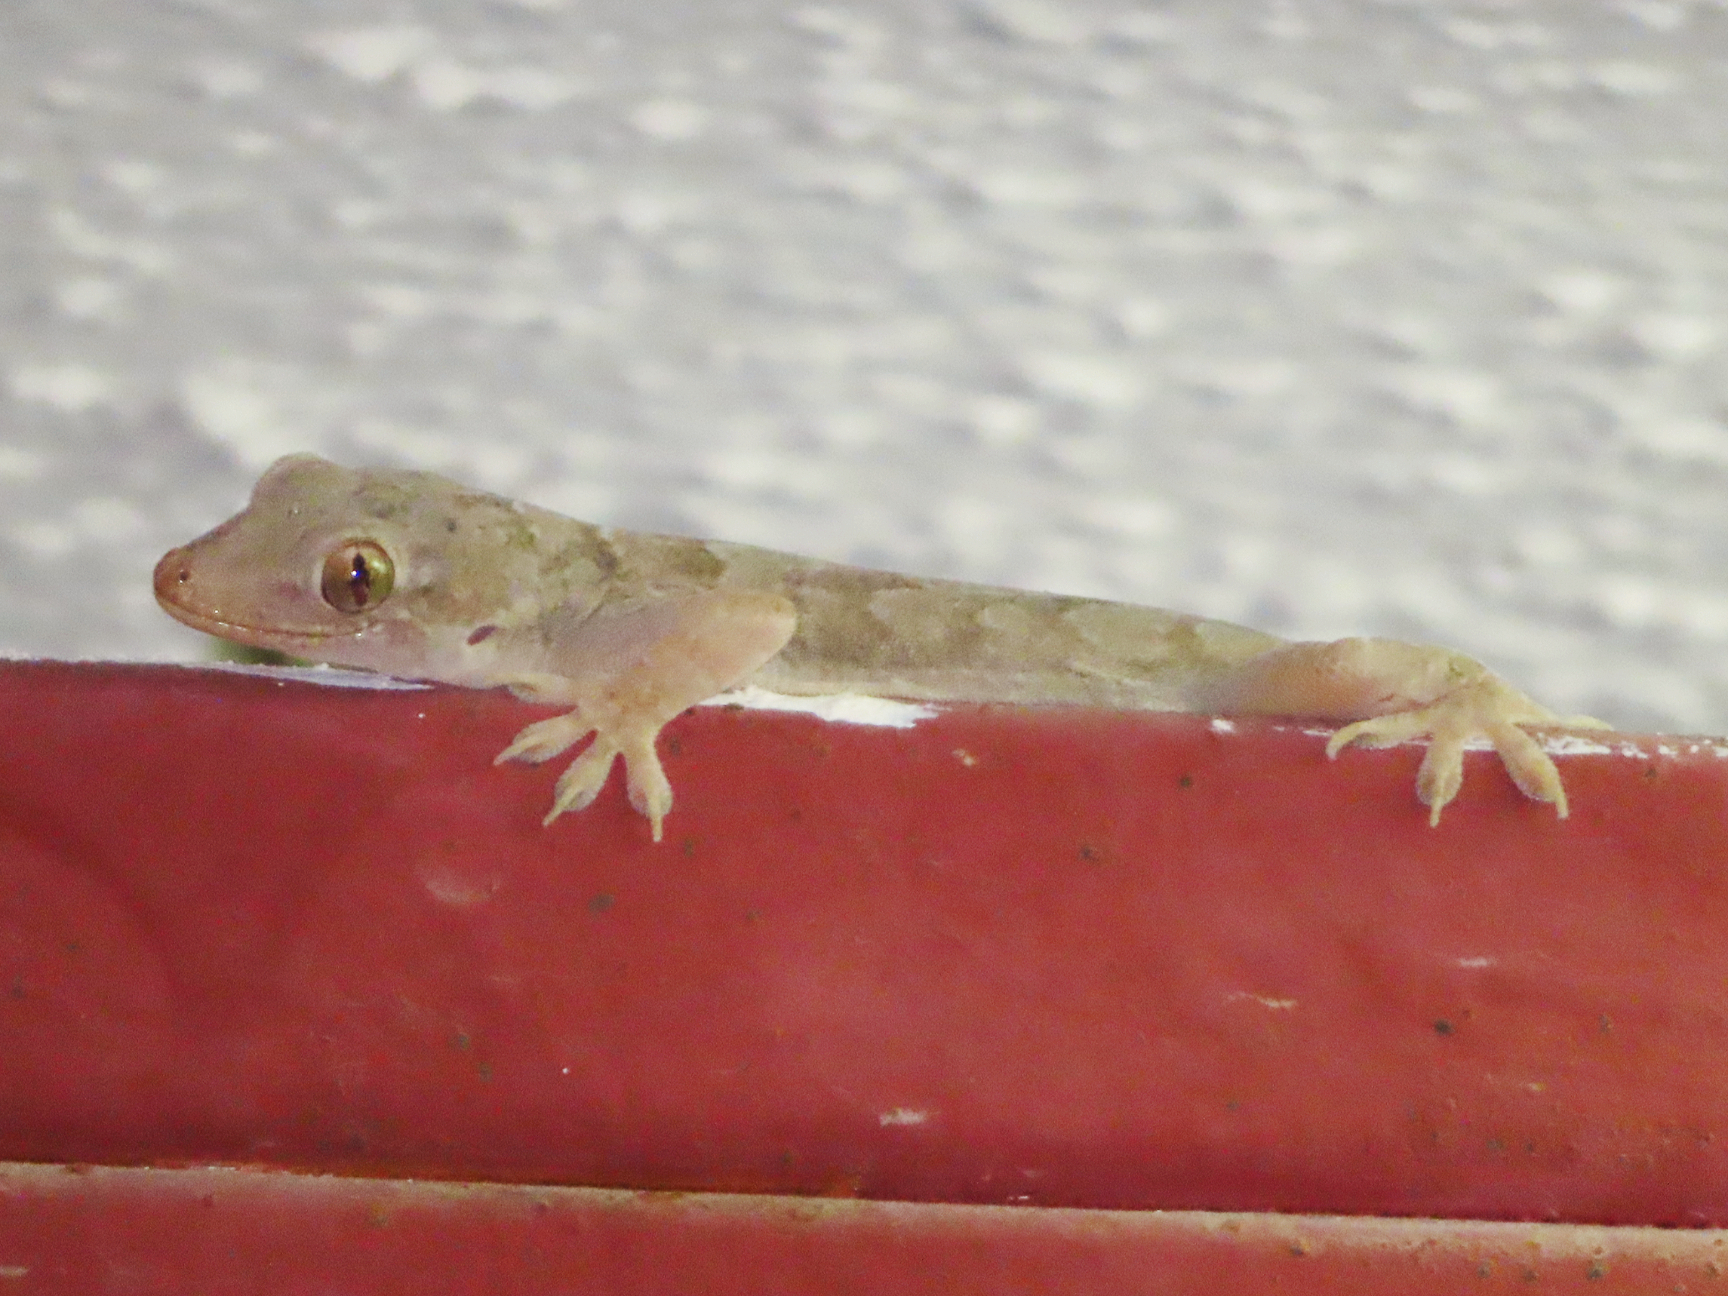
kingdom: Animalia
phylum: Chordata
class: Squamata
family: Gekkonidae
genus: Hemidactylus
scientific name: Hemidactylus flaviviridis
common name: Northern house gecko
